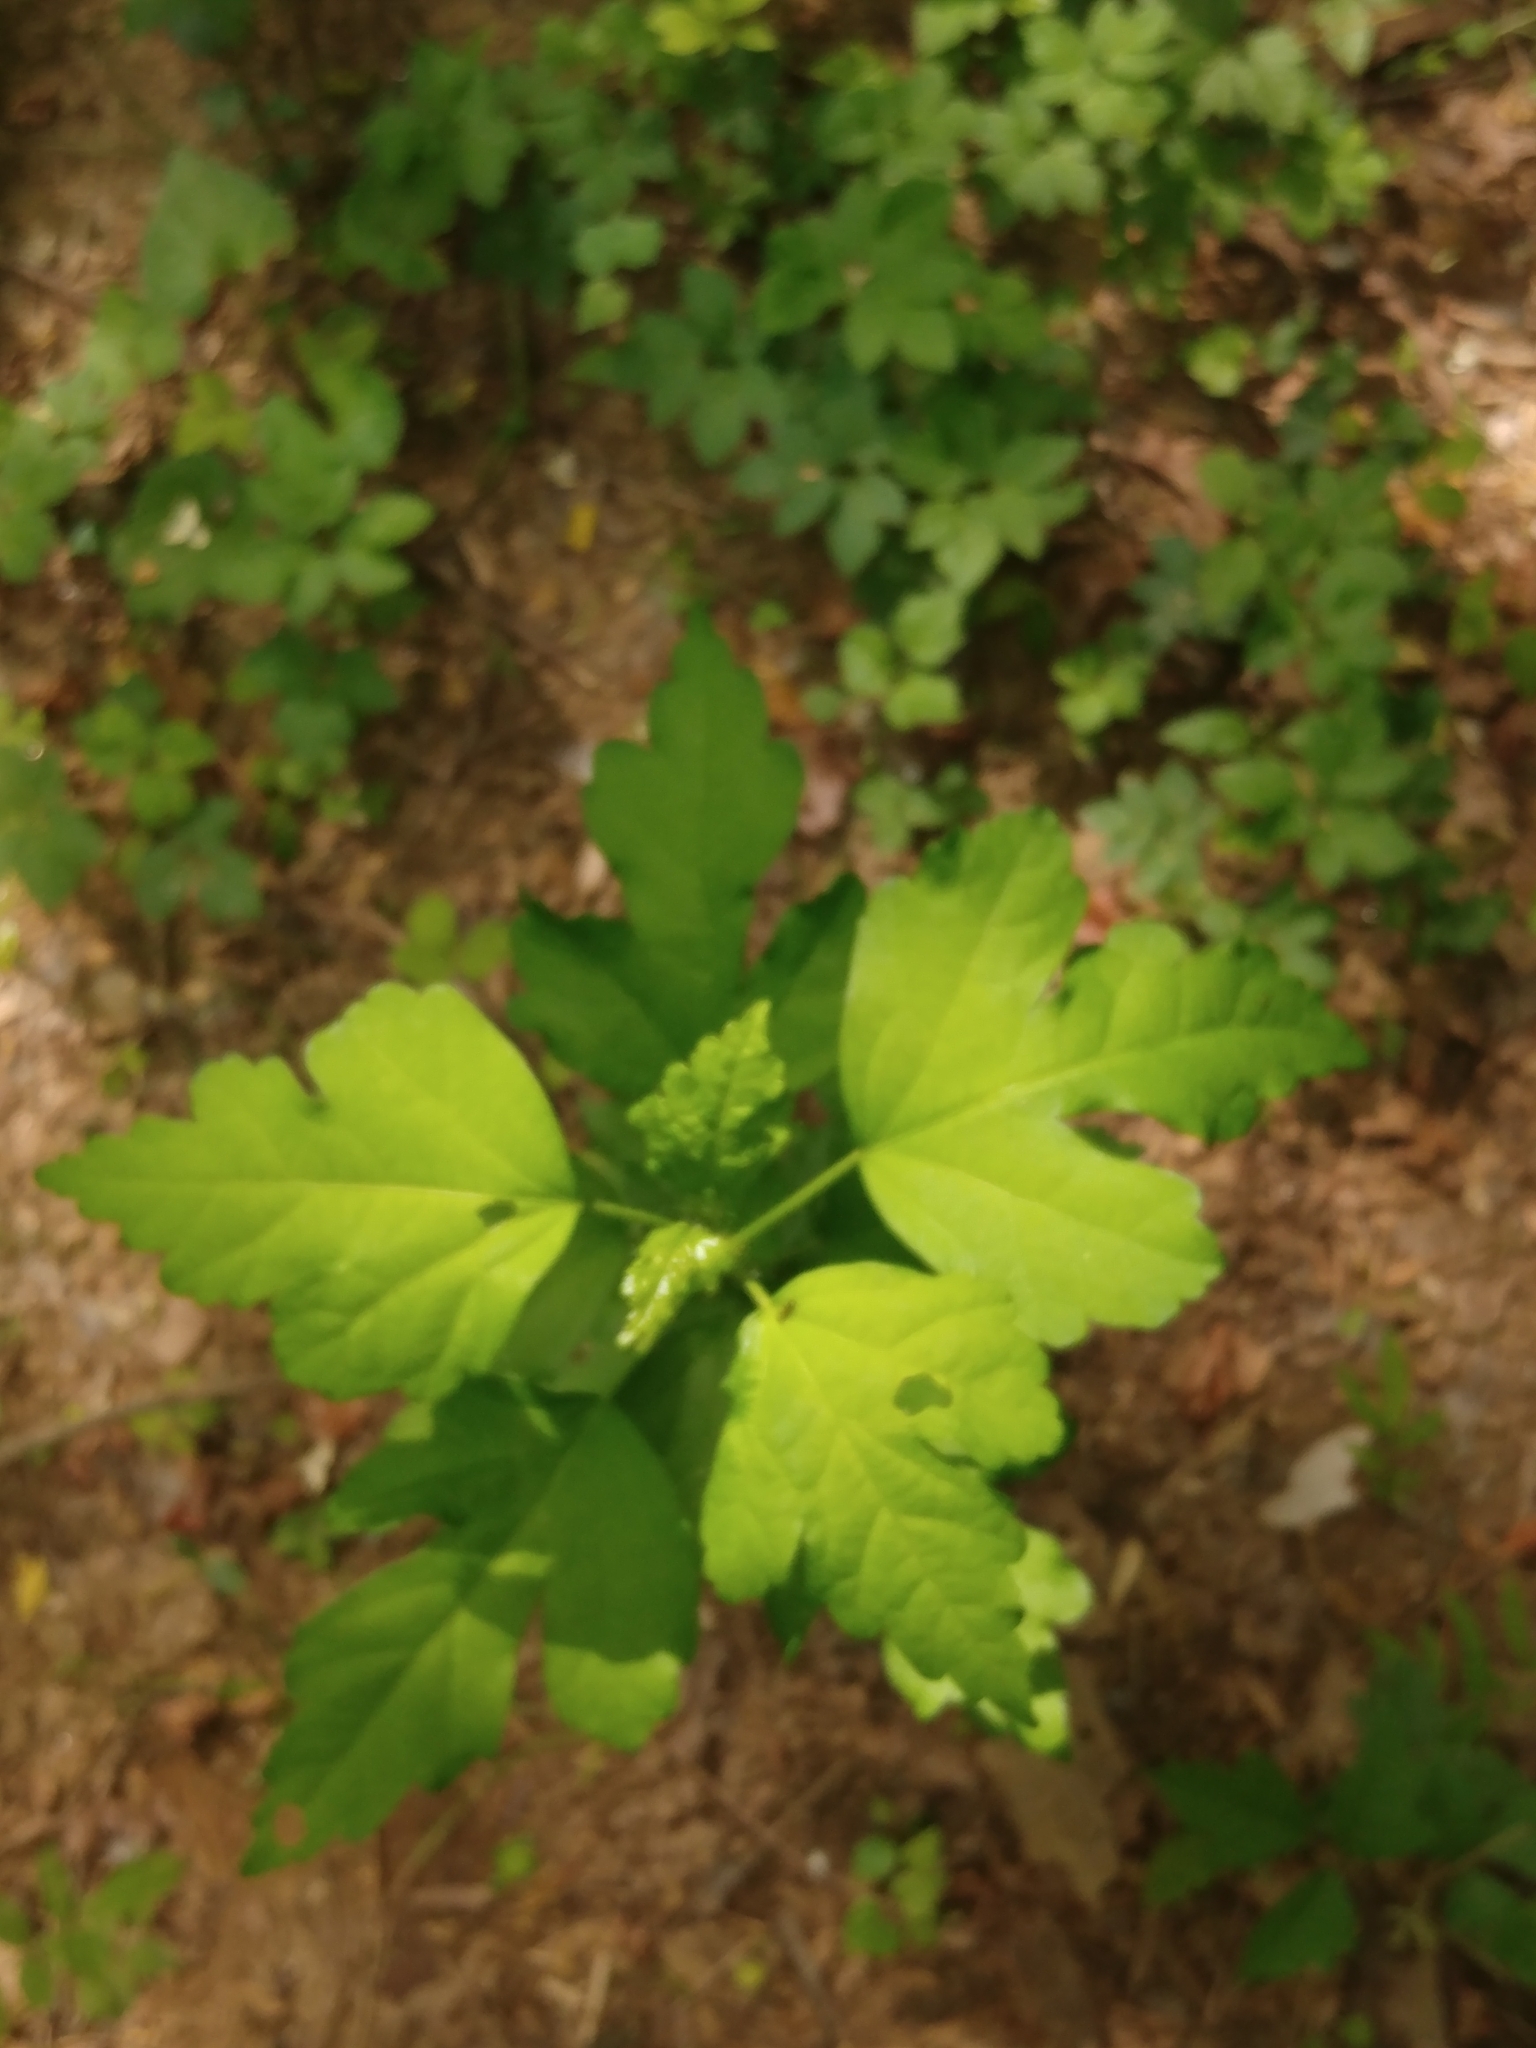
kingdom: Plantae
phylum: Tracheophyta
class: Magnoliopsida
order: Malvales
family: Malvaceae
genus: Hibiscus
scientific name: Hibiscus syriacus
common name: Syrian ketmia
